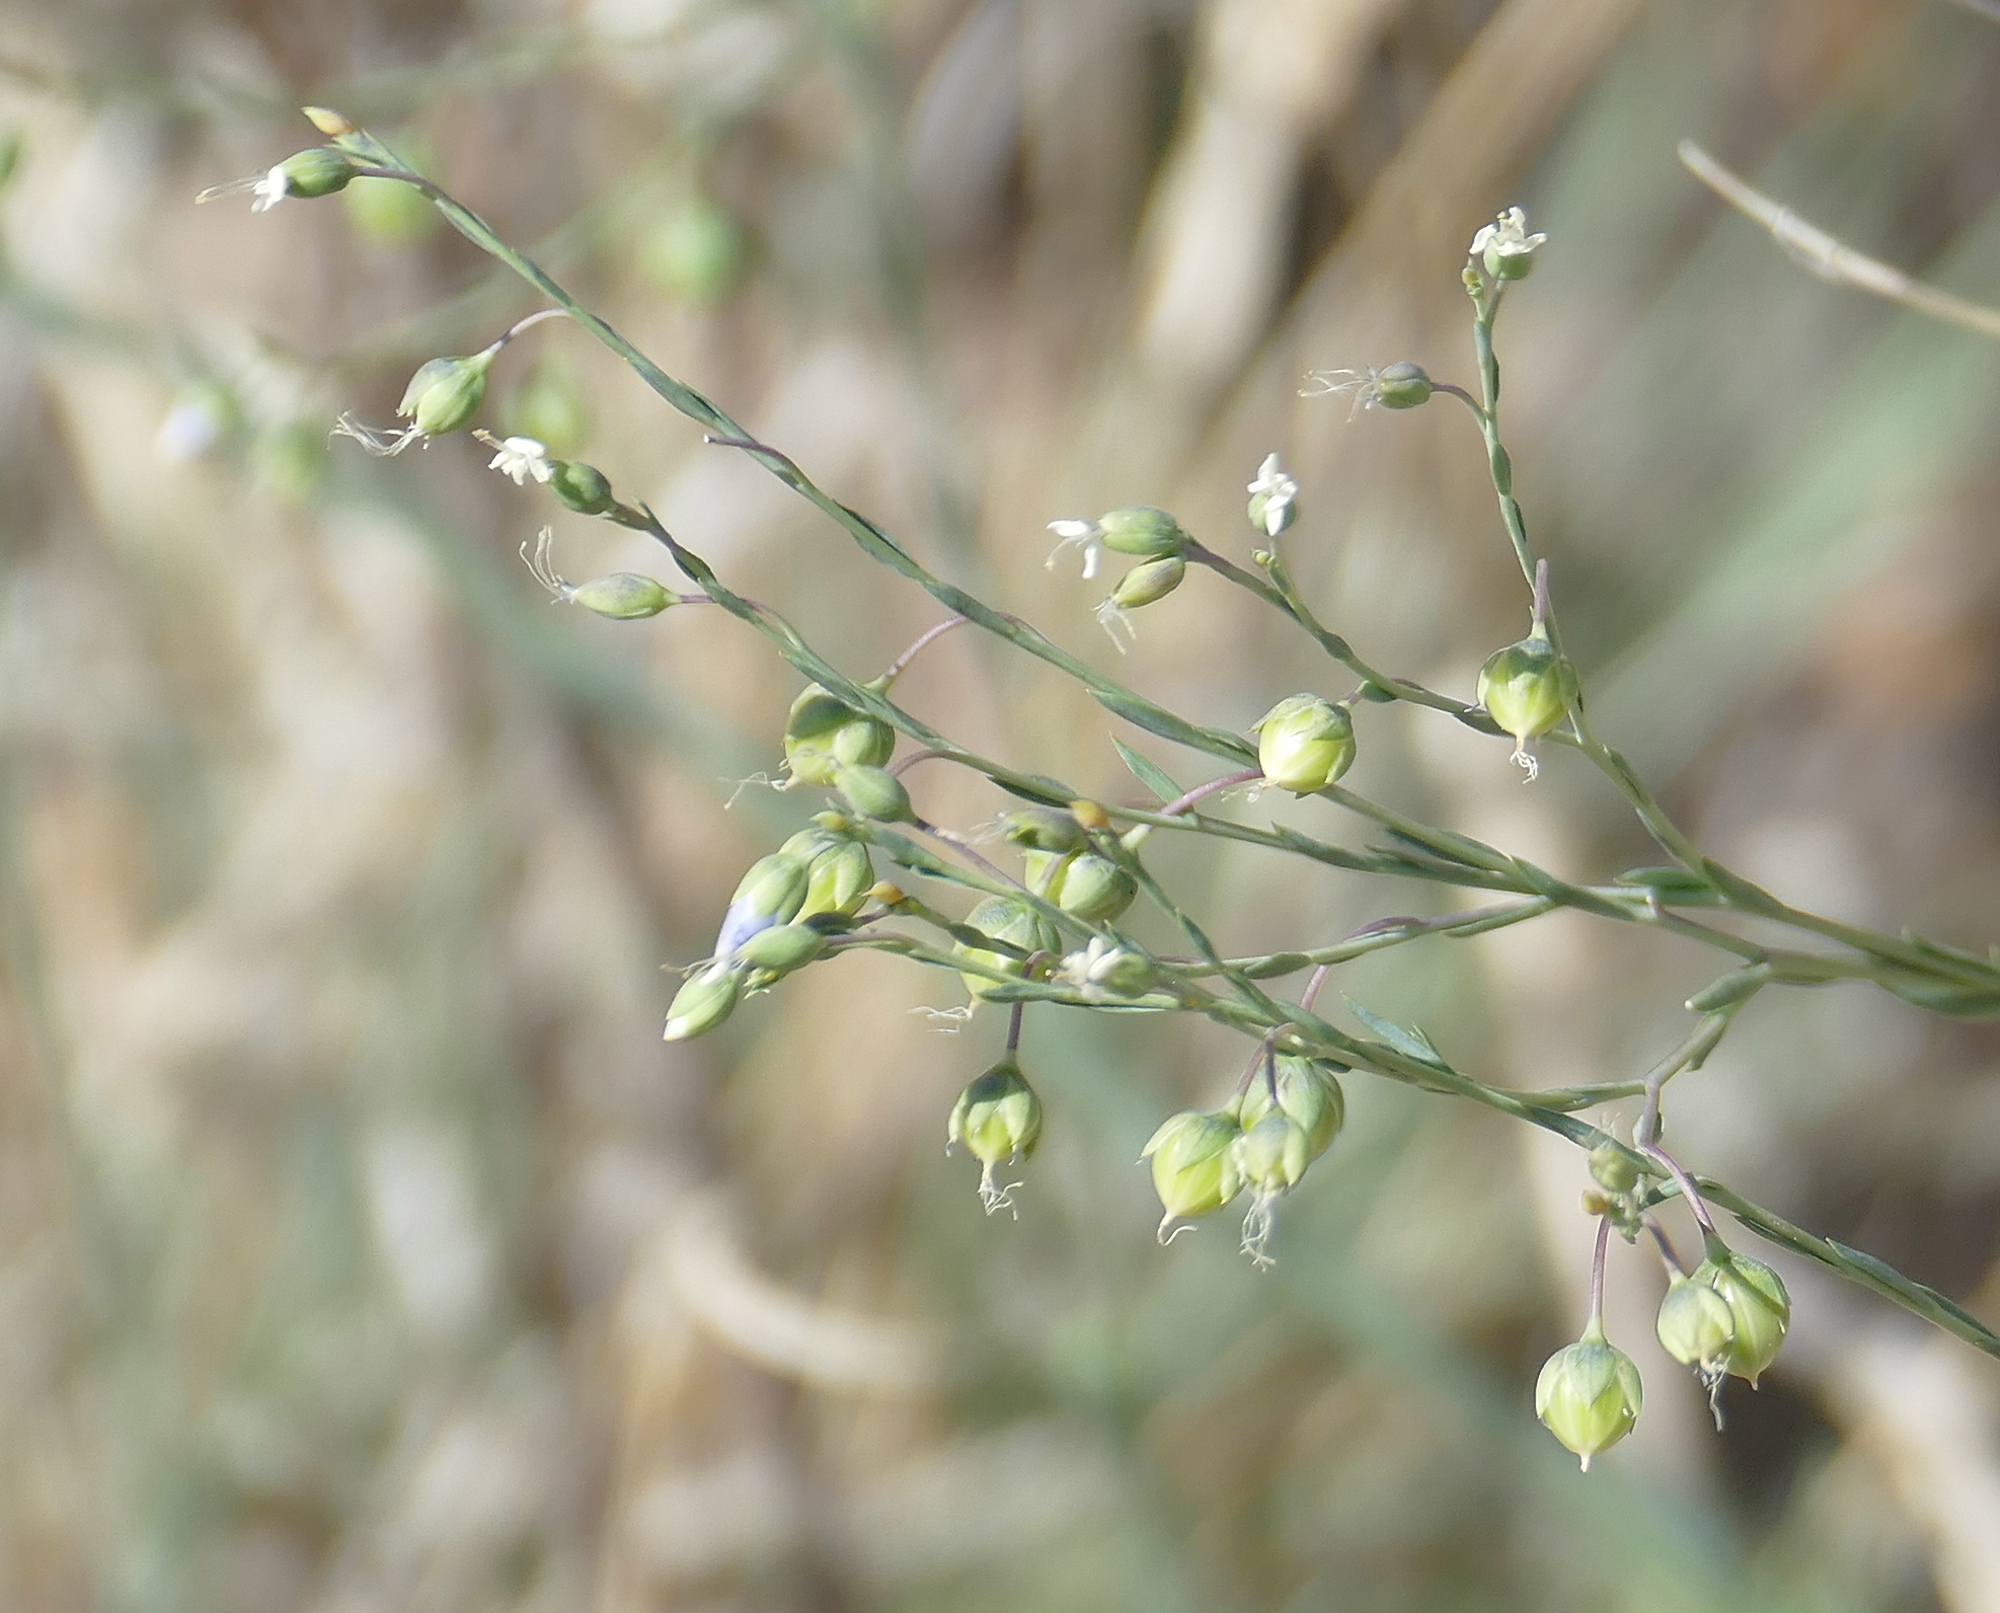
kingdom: Plantae
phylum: Tracheophyta
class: Magnoliopsida
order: Malpighiales
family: Linaceae
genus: Linum
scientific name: Linum lewisii
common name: Prairie flax
